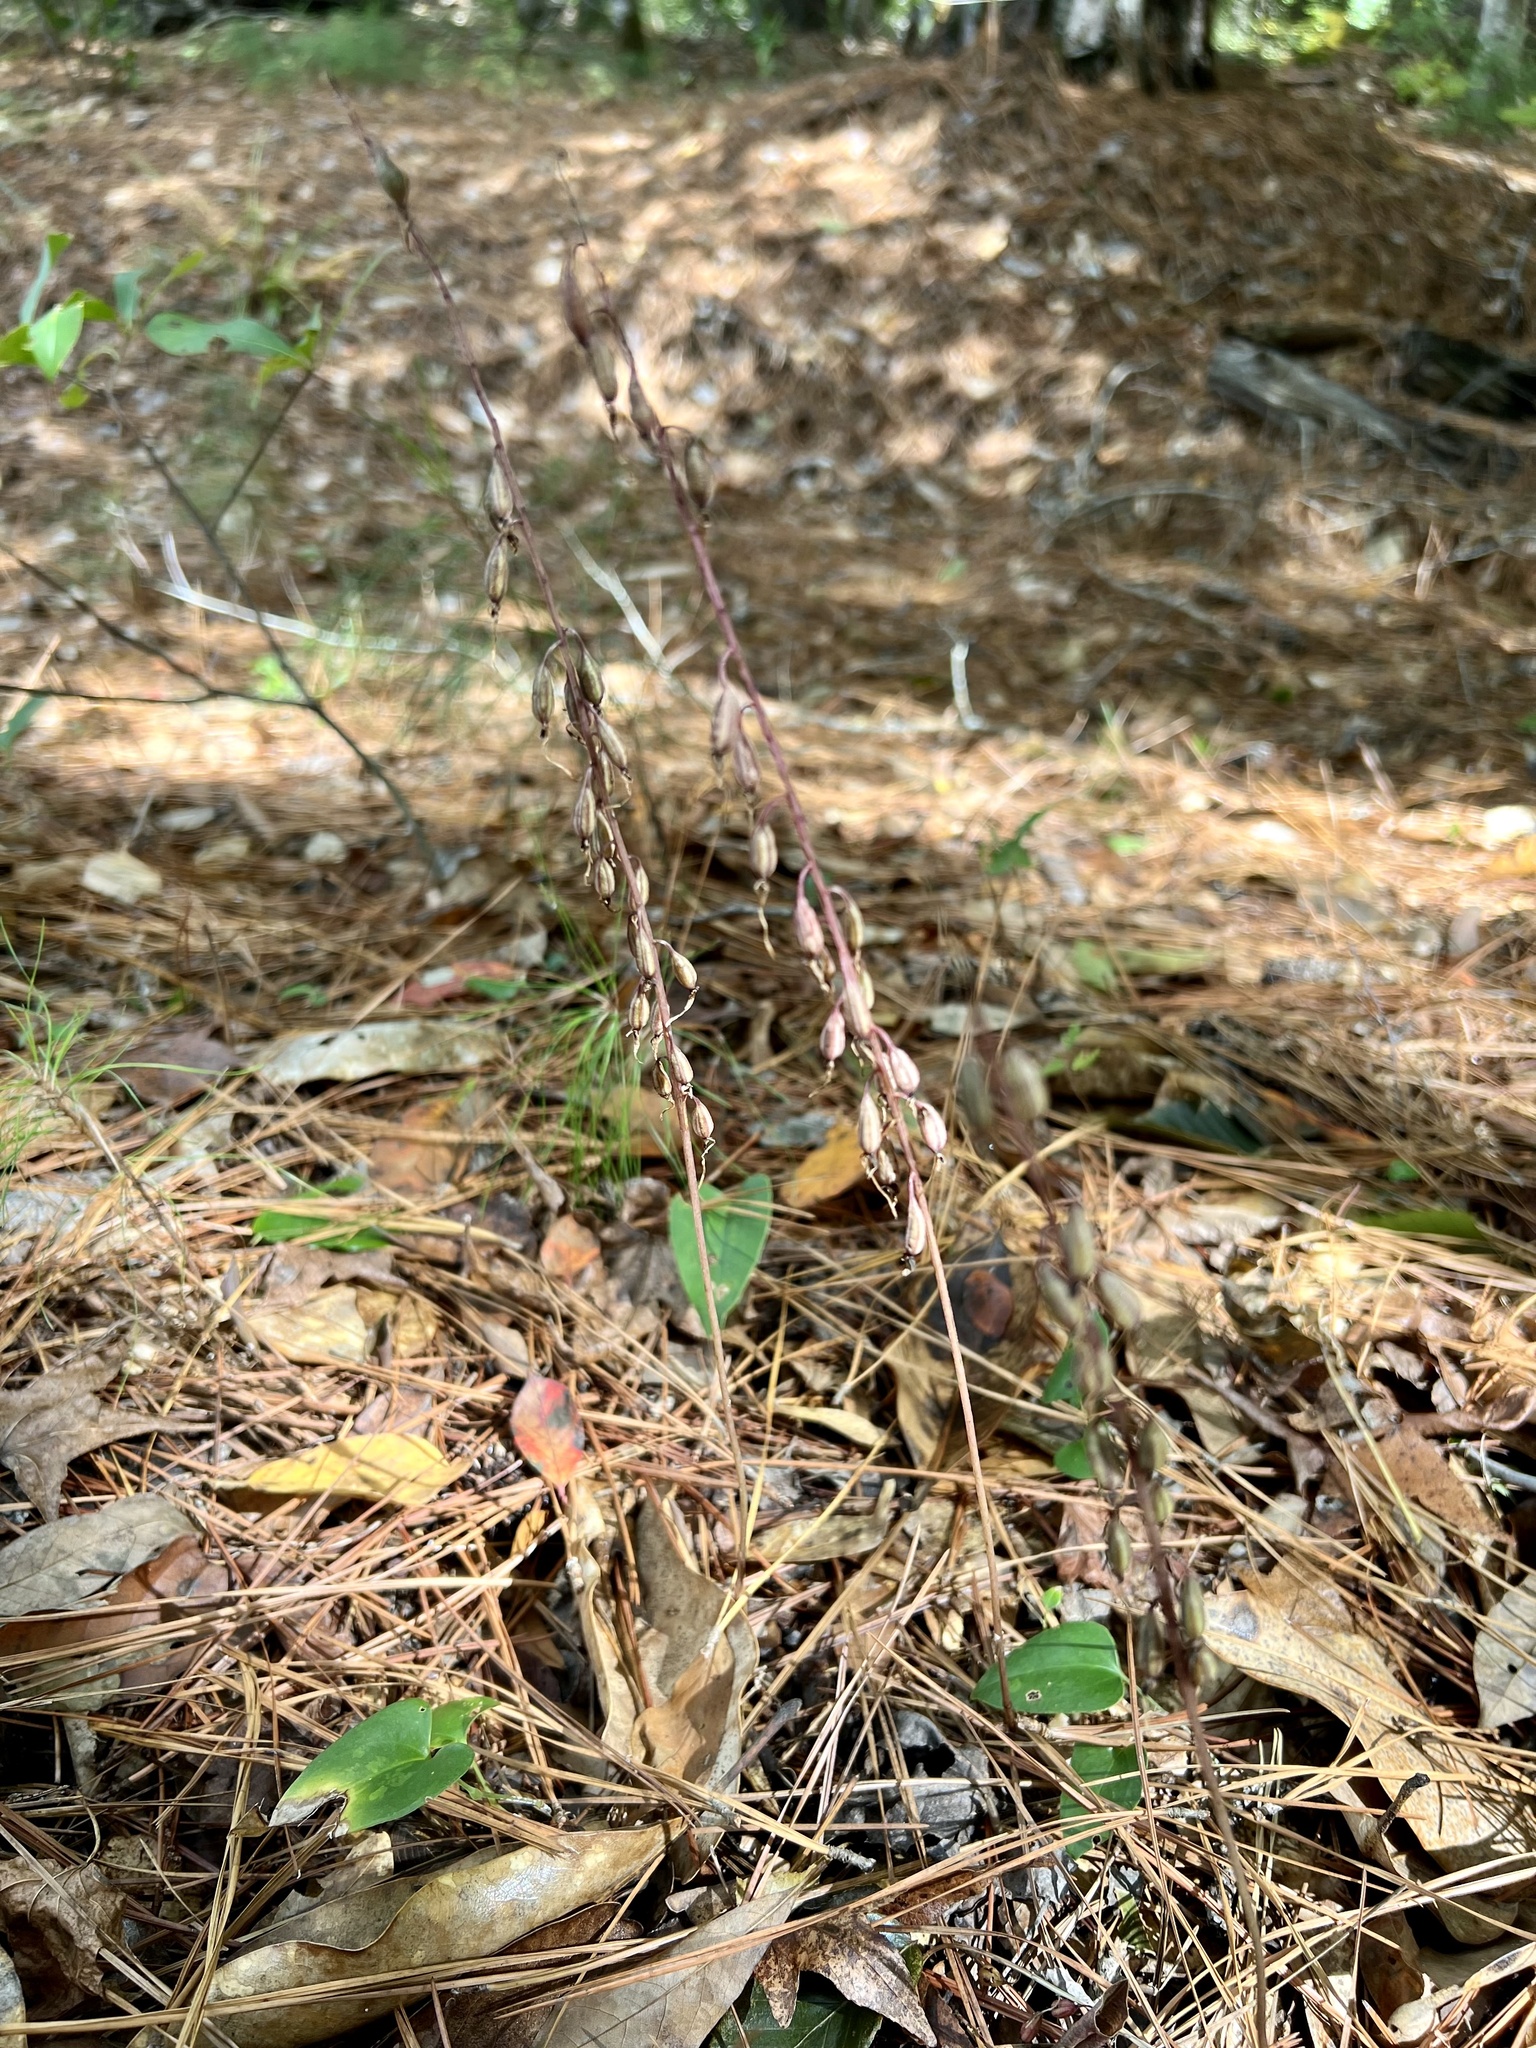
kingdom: Plantae
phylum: Tracheophyta
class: Liliopsida
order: Asparagales
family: Orchidaceae
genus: Tipularia
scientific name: Tipularia discolor
